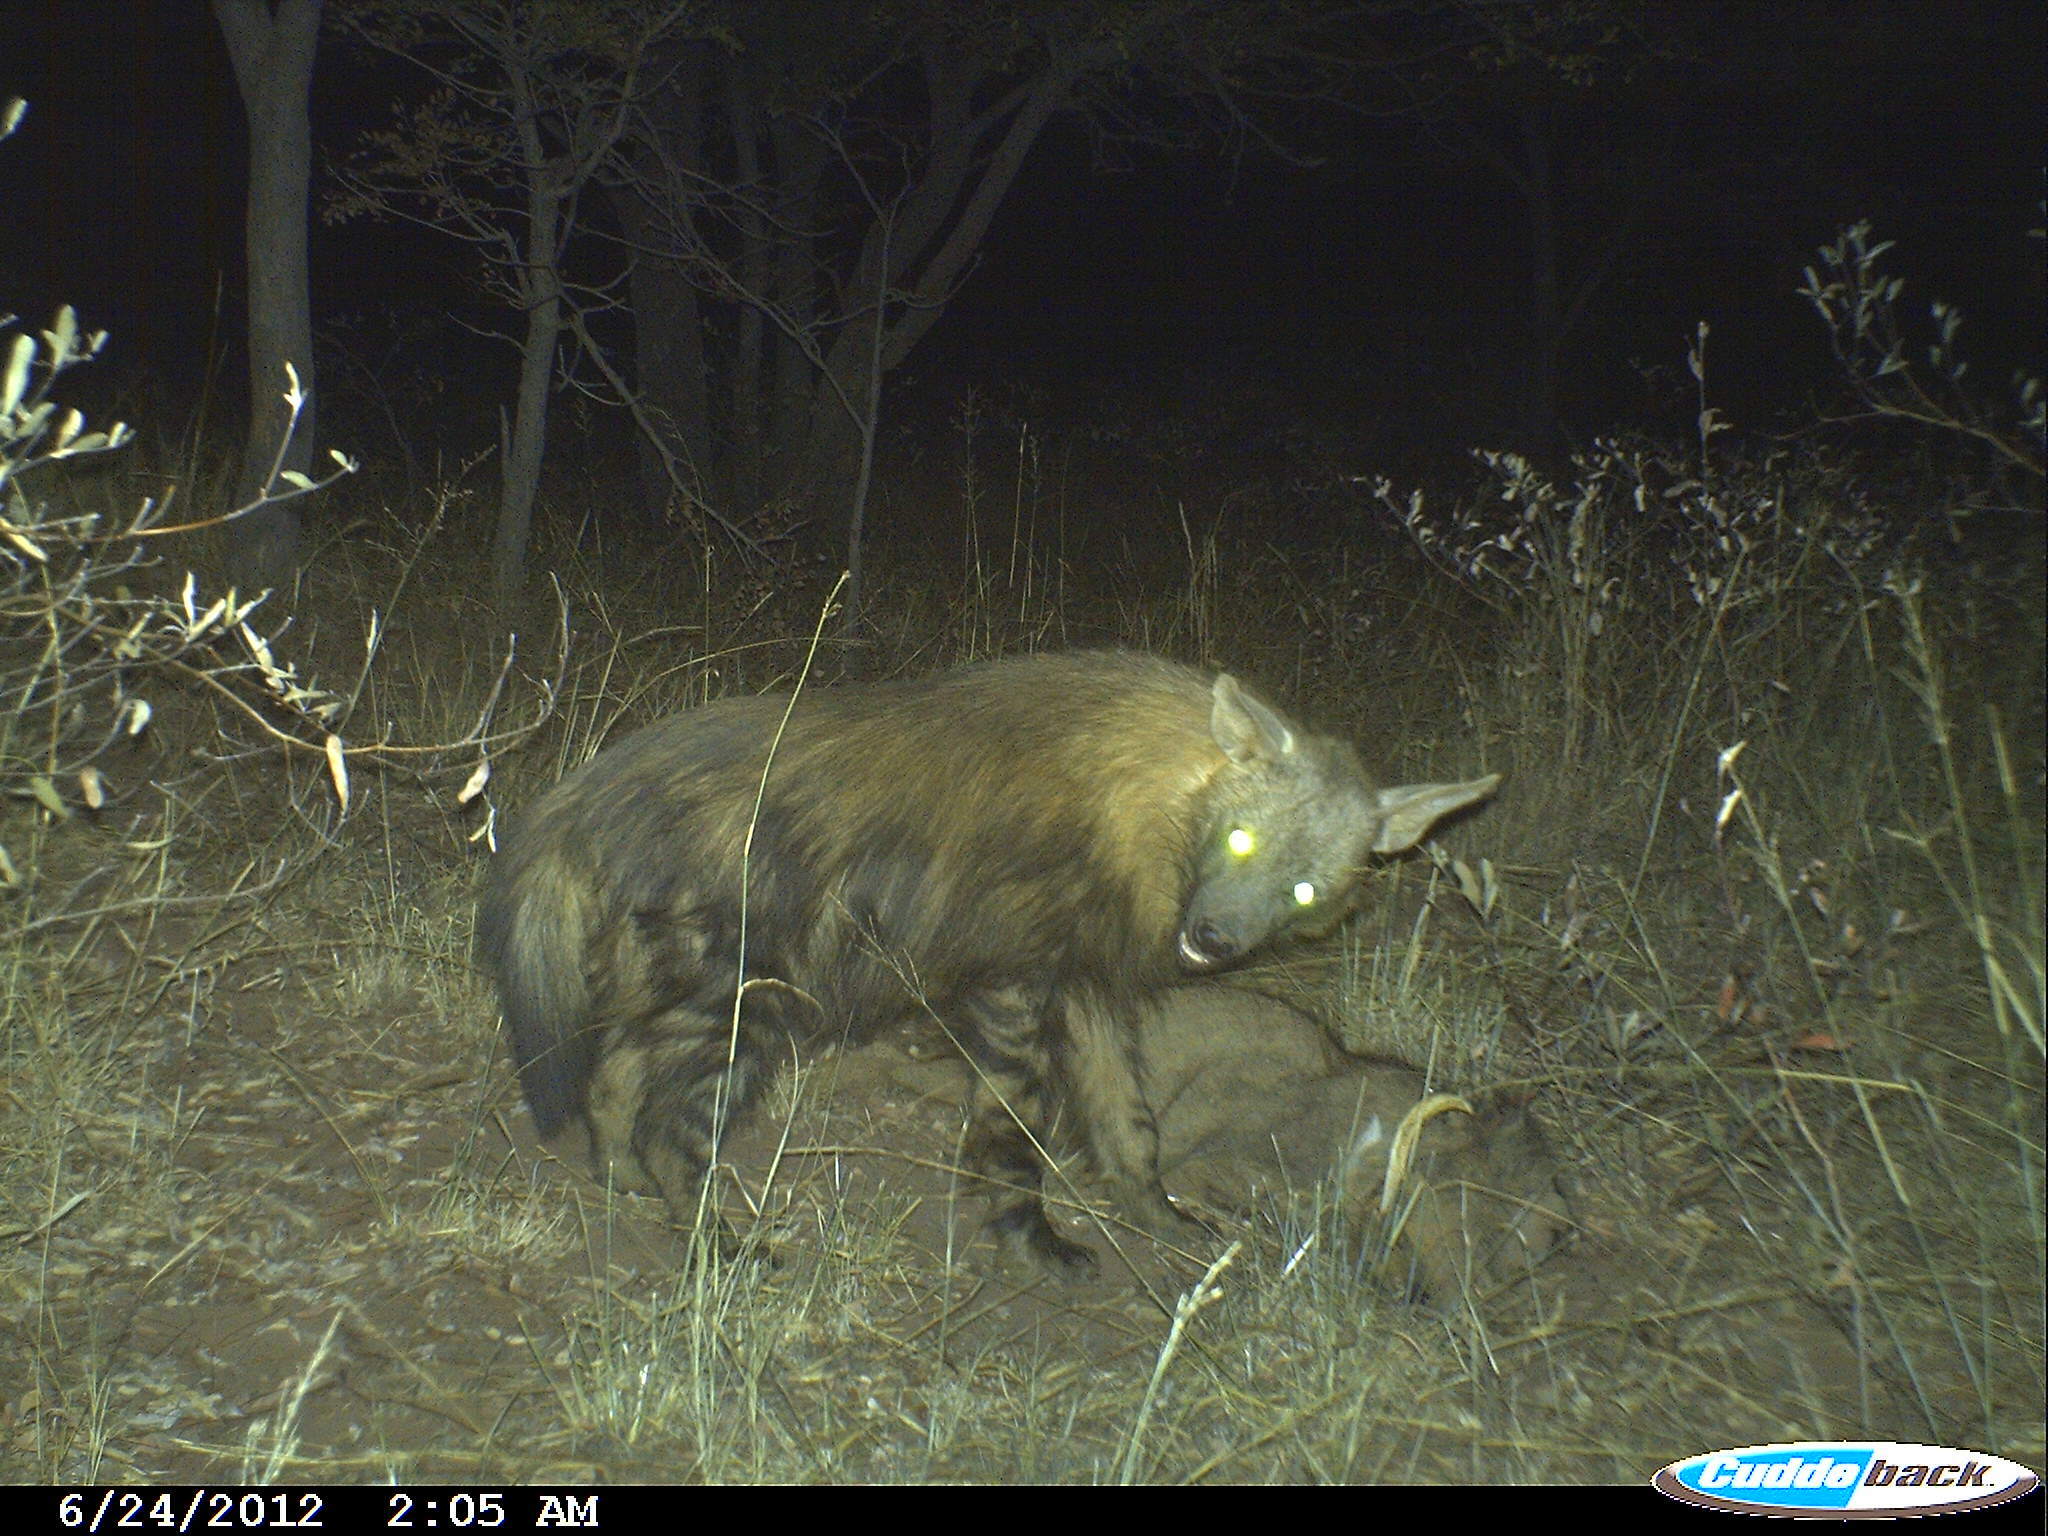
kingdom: Animalia
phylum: Chordata
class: Mammalia
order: Carnivora
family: Hyaenidae
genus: Hyaena
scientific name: Hyaena brunnea
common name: Brown hyena
